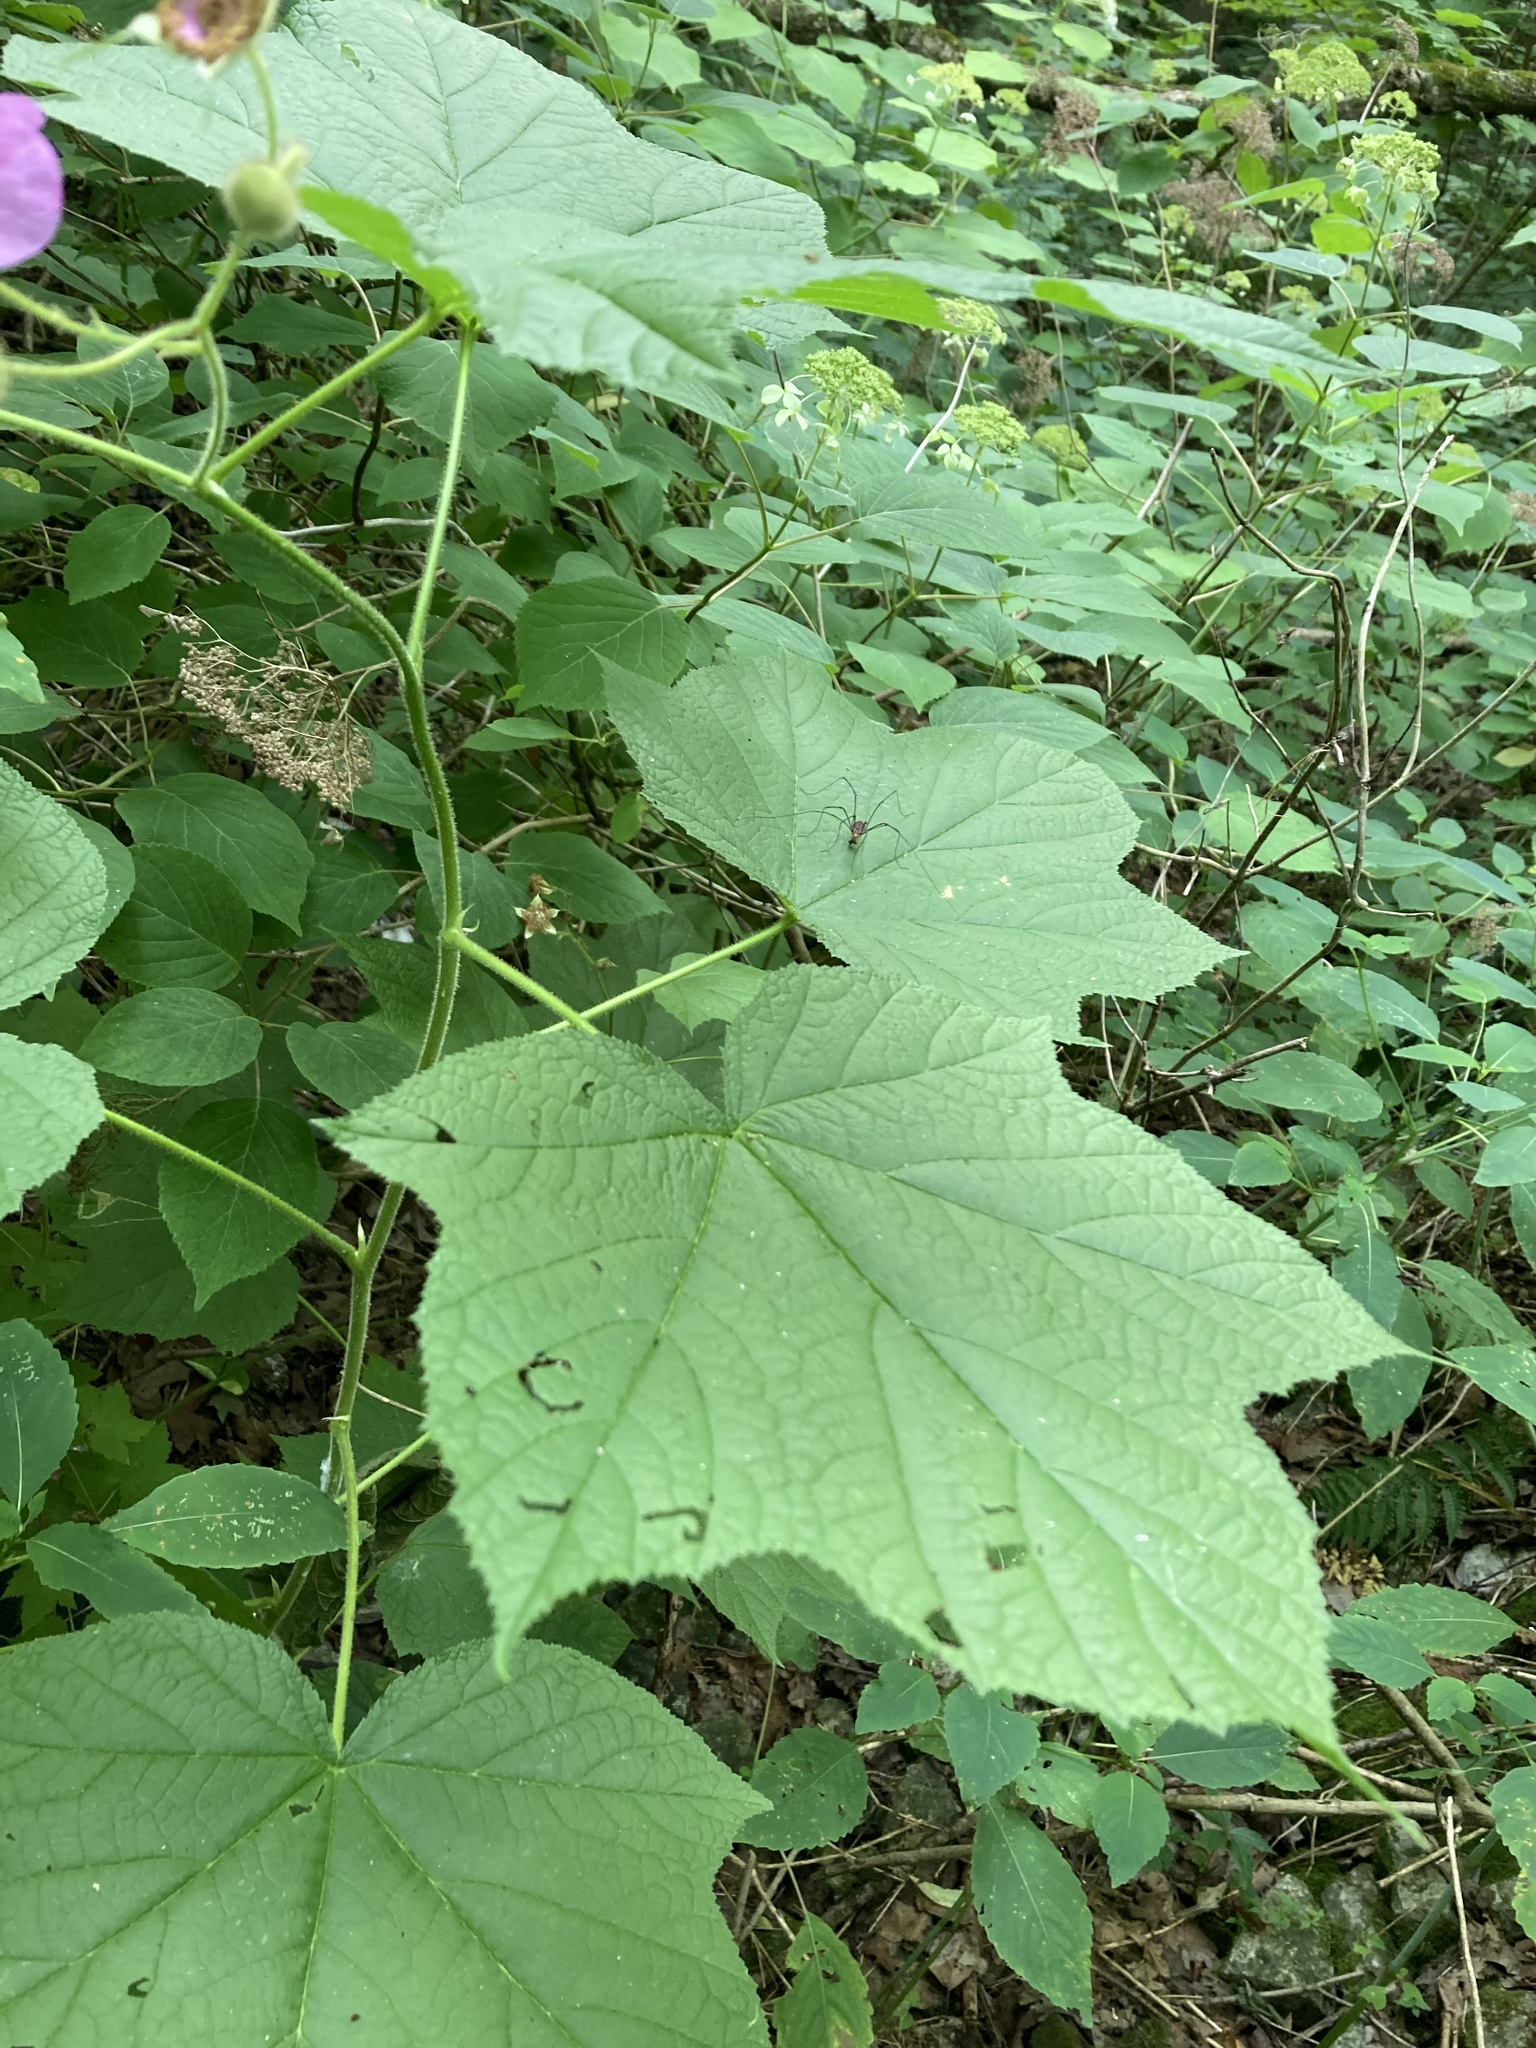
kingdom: Plantae
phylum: Tracheophyta
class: Magnoliopsida
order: Rosales
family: Rosaceae
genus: Rubus
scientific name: Rubus odoratus
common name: Purple-flowered raspberry
